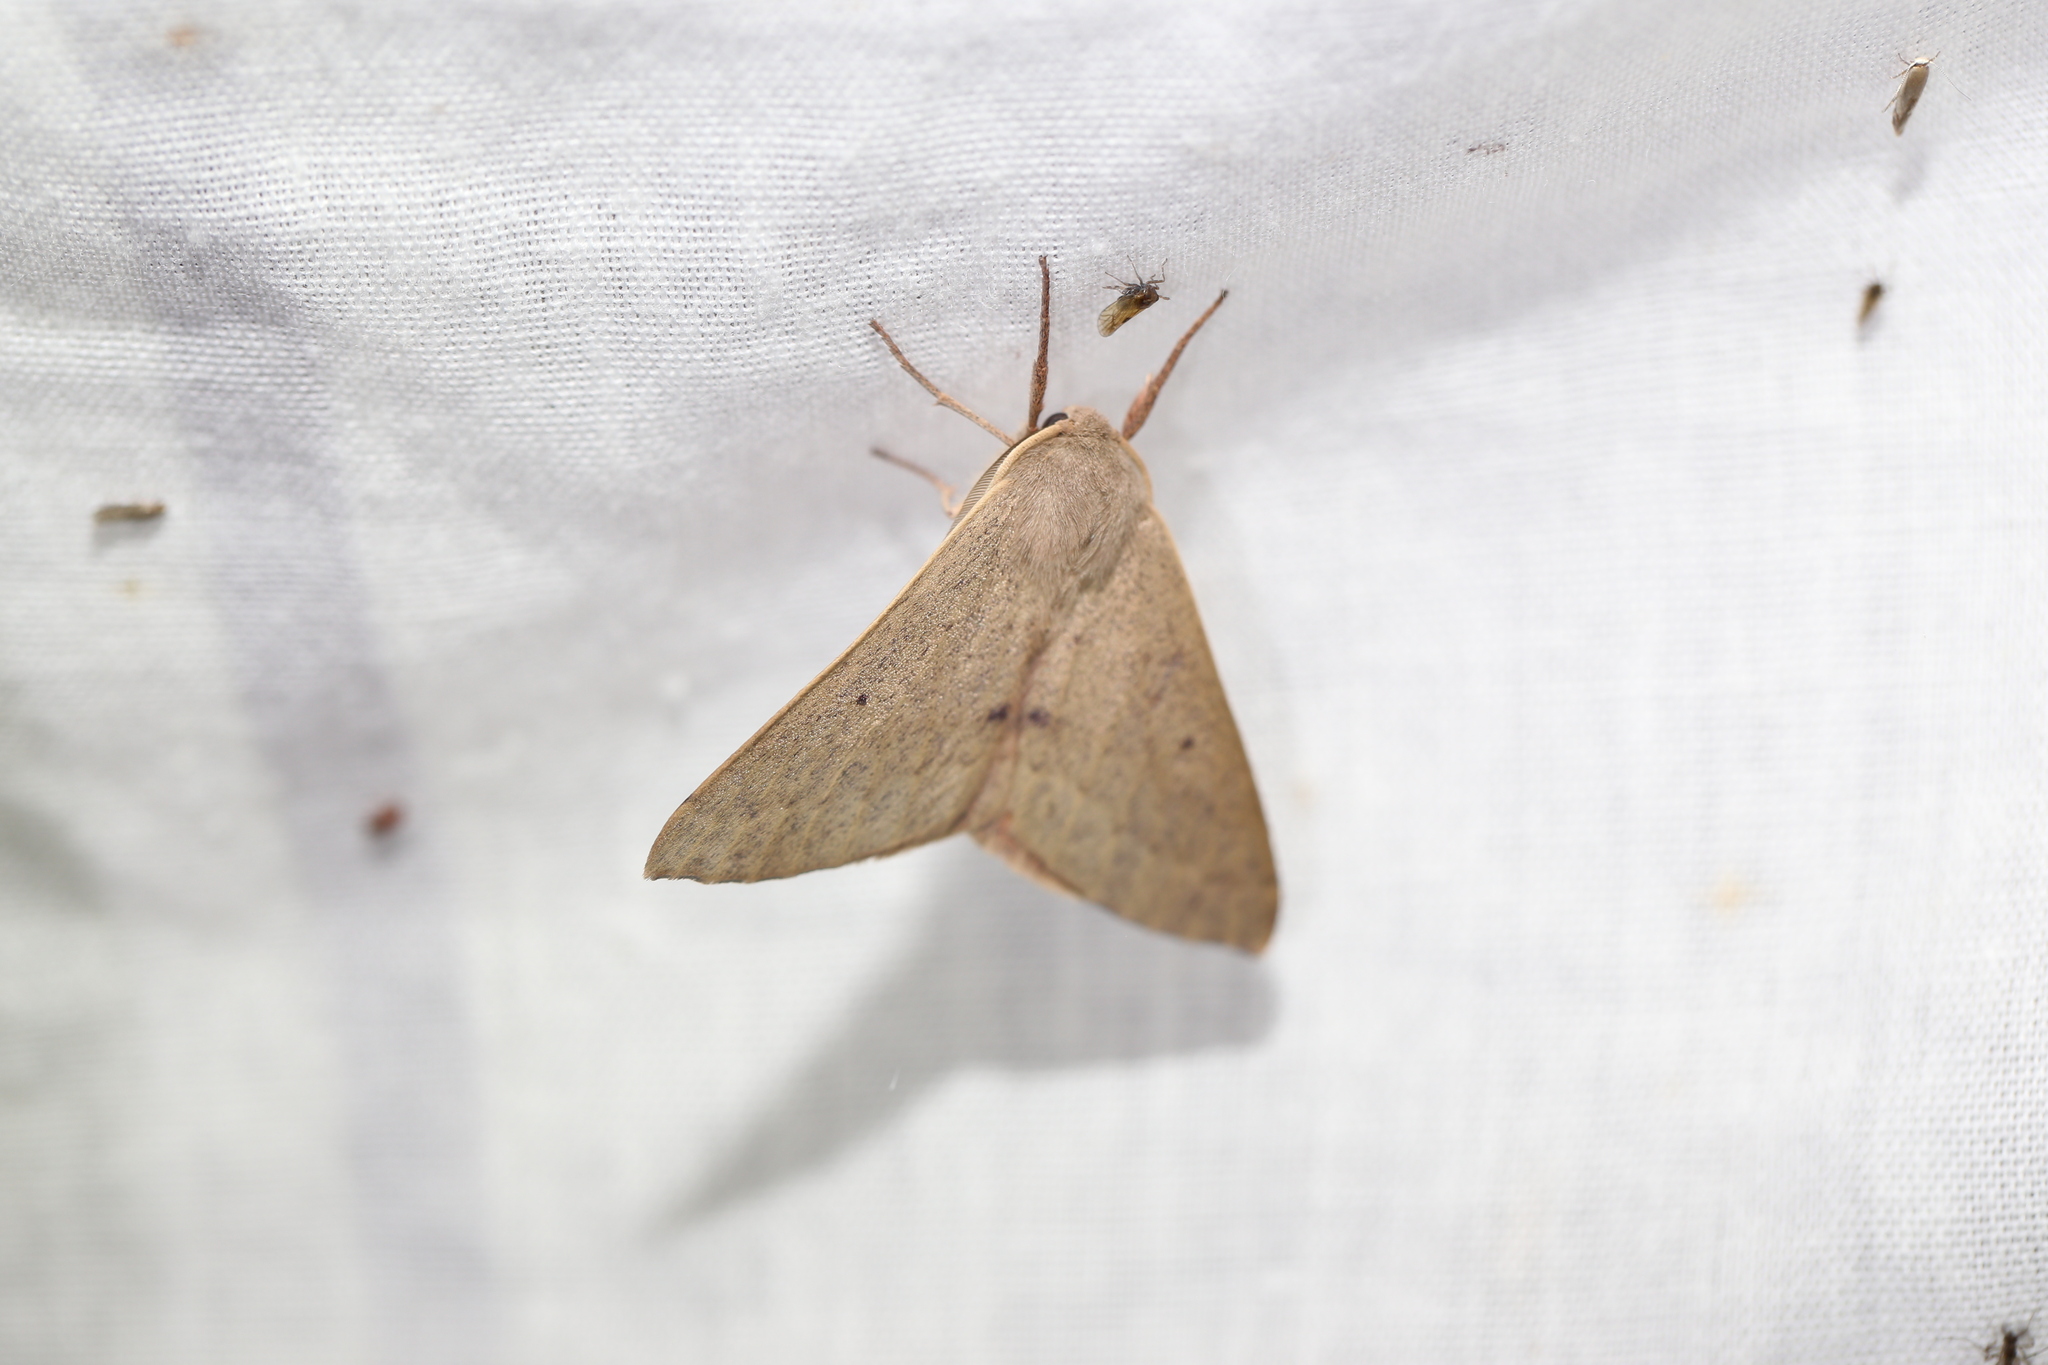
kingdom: Animalia
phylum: Arthropoda
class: Insecta
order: Lepidoptera
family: Geometridae
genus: Arhodia
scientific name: Arhodia lasiocamparia
